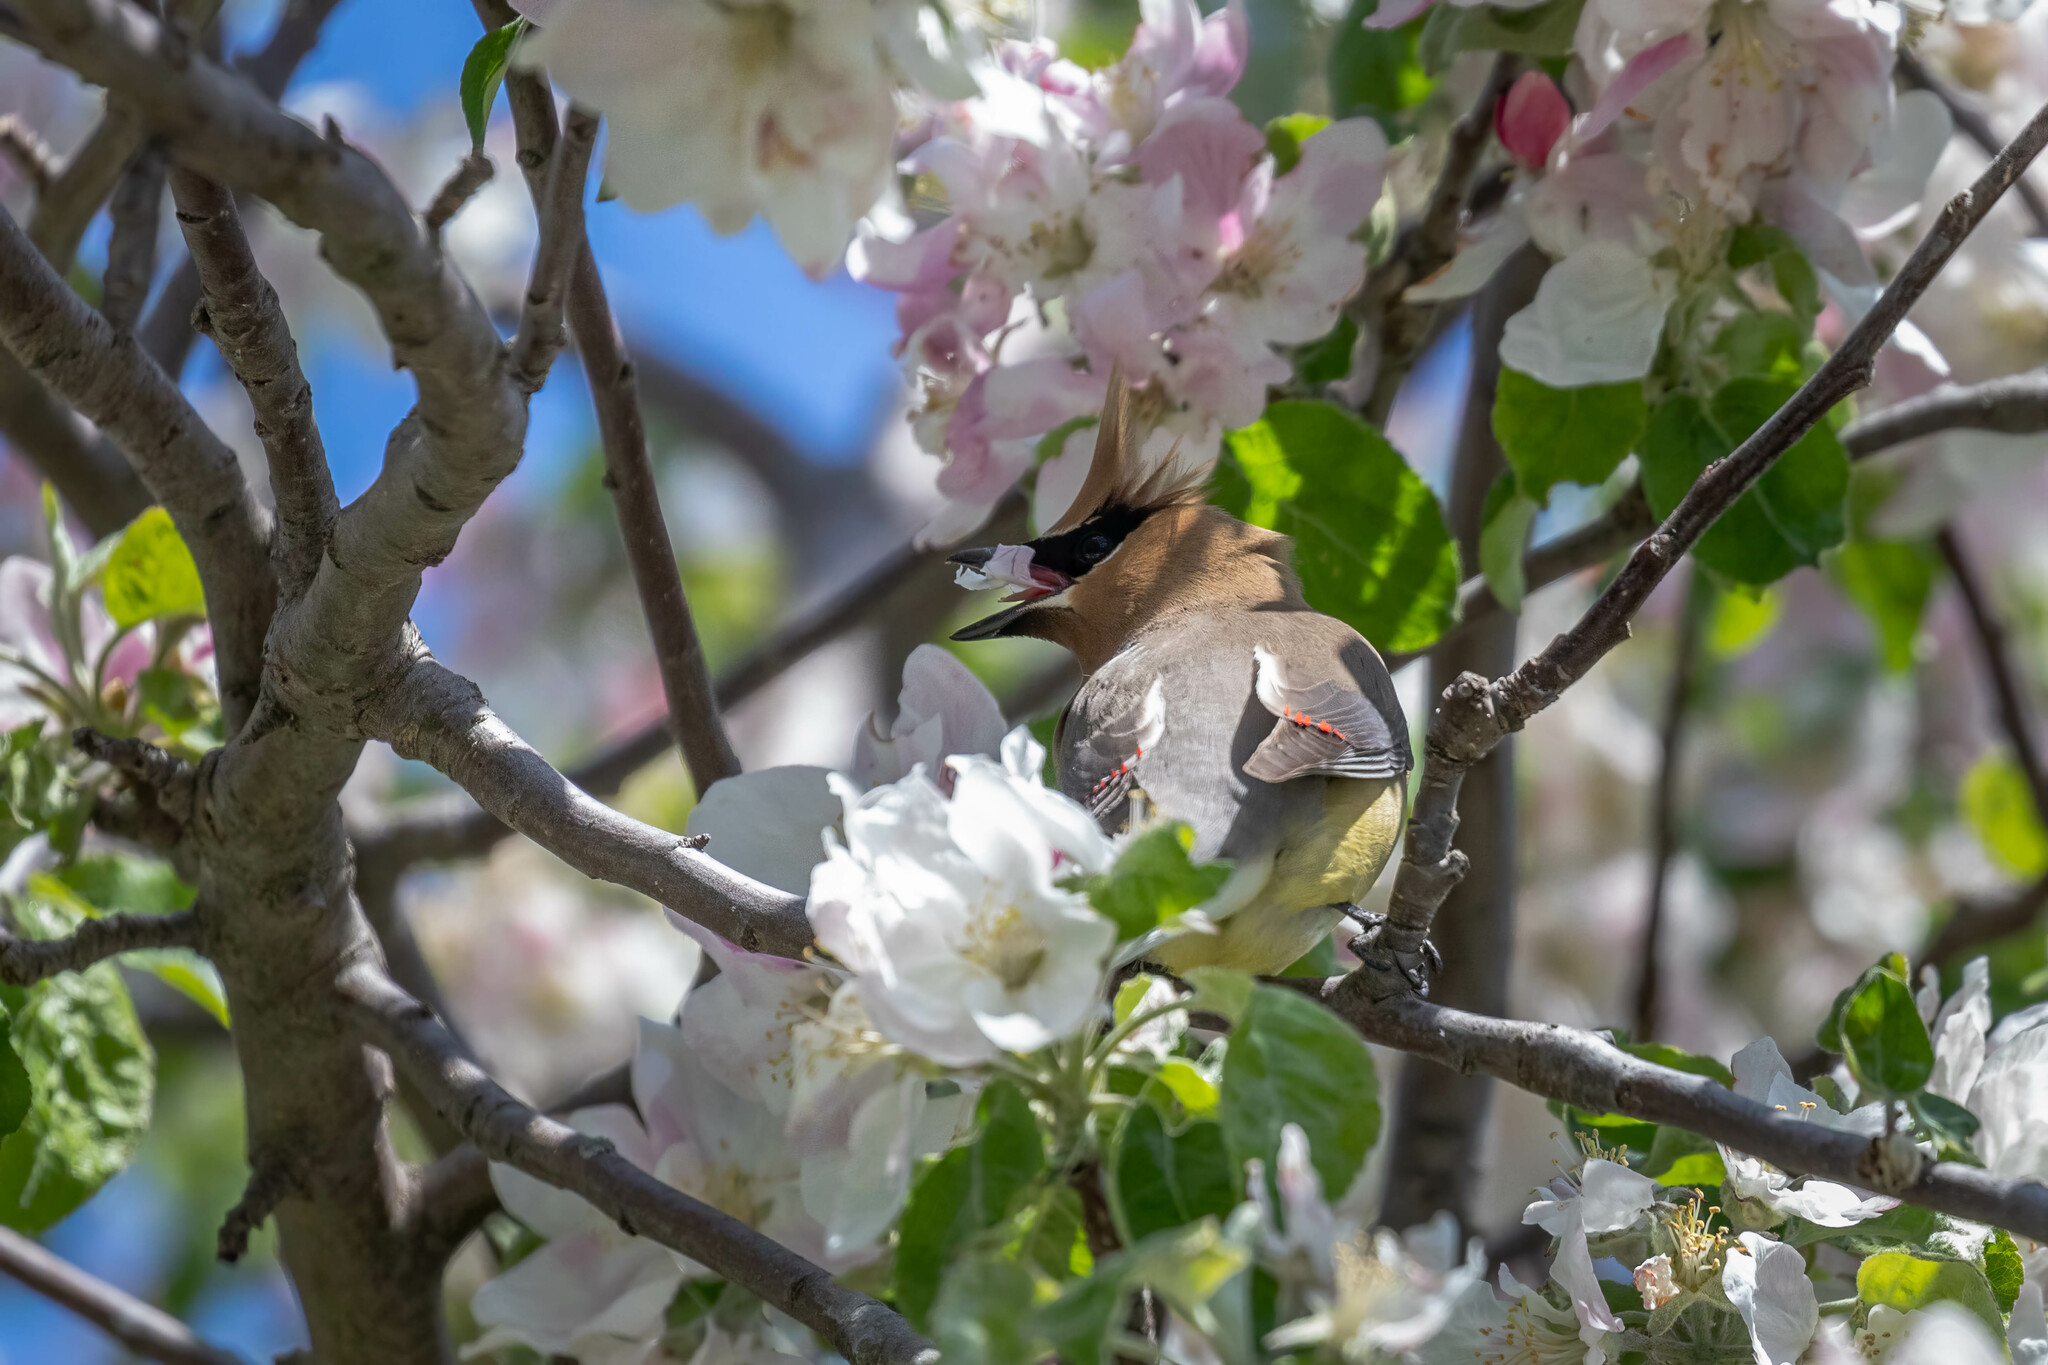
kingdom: Animalia
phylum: Chordata
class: Aves
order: Passeriformes
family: Bombycillidae
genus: Bombycilla
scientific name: Bombycilla cedrorum
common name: Cedar waxwing
